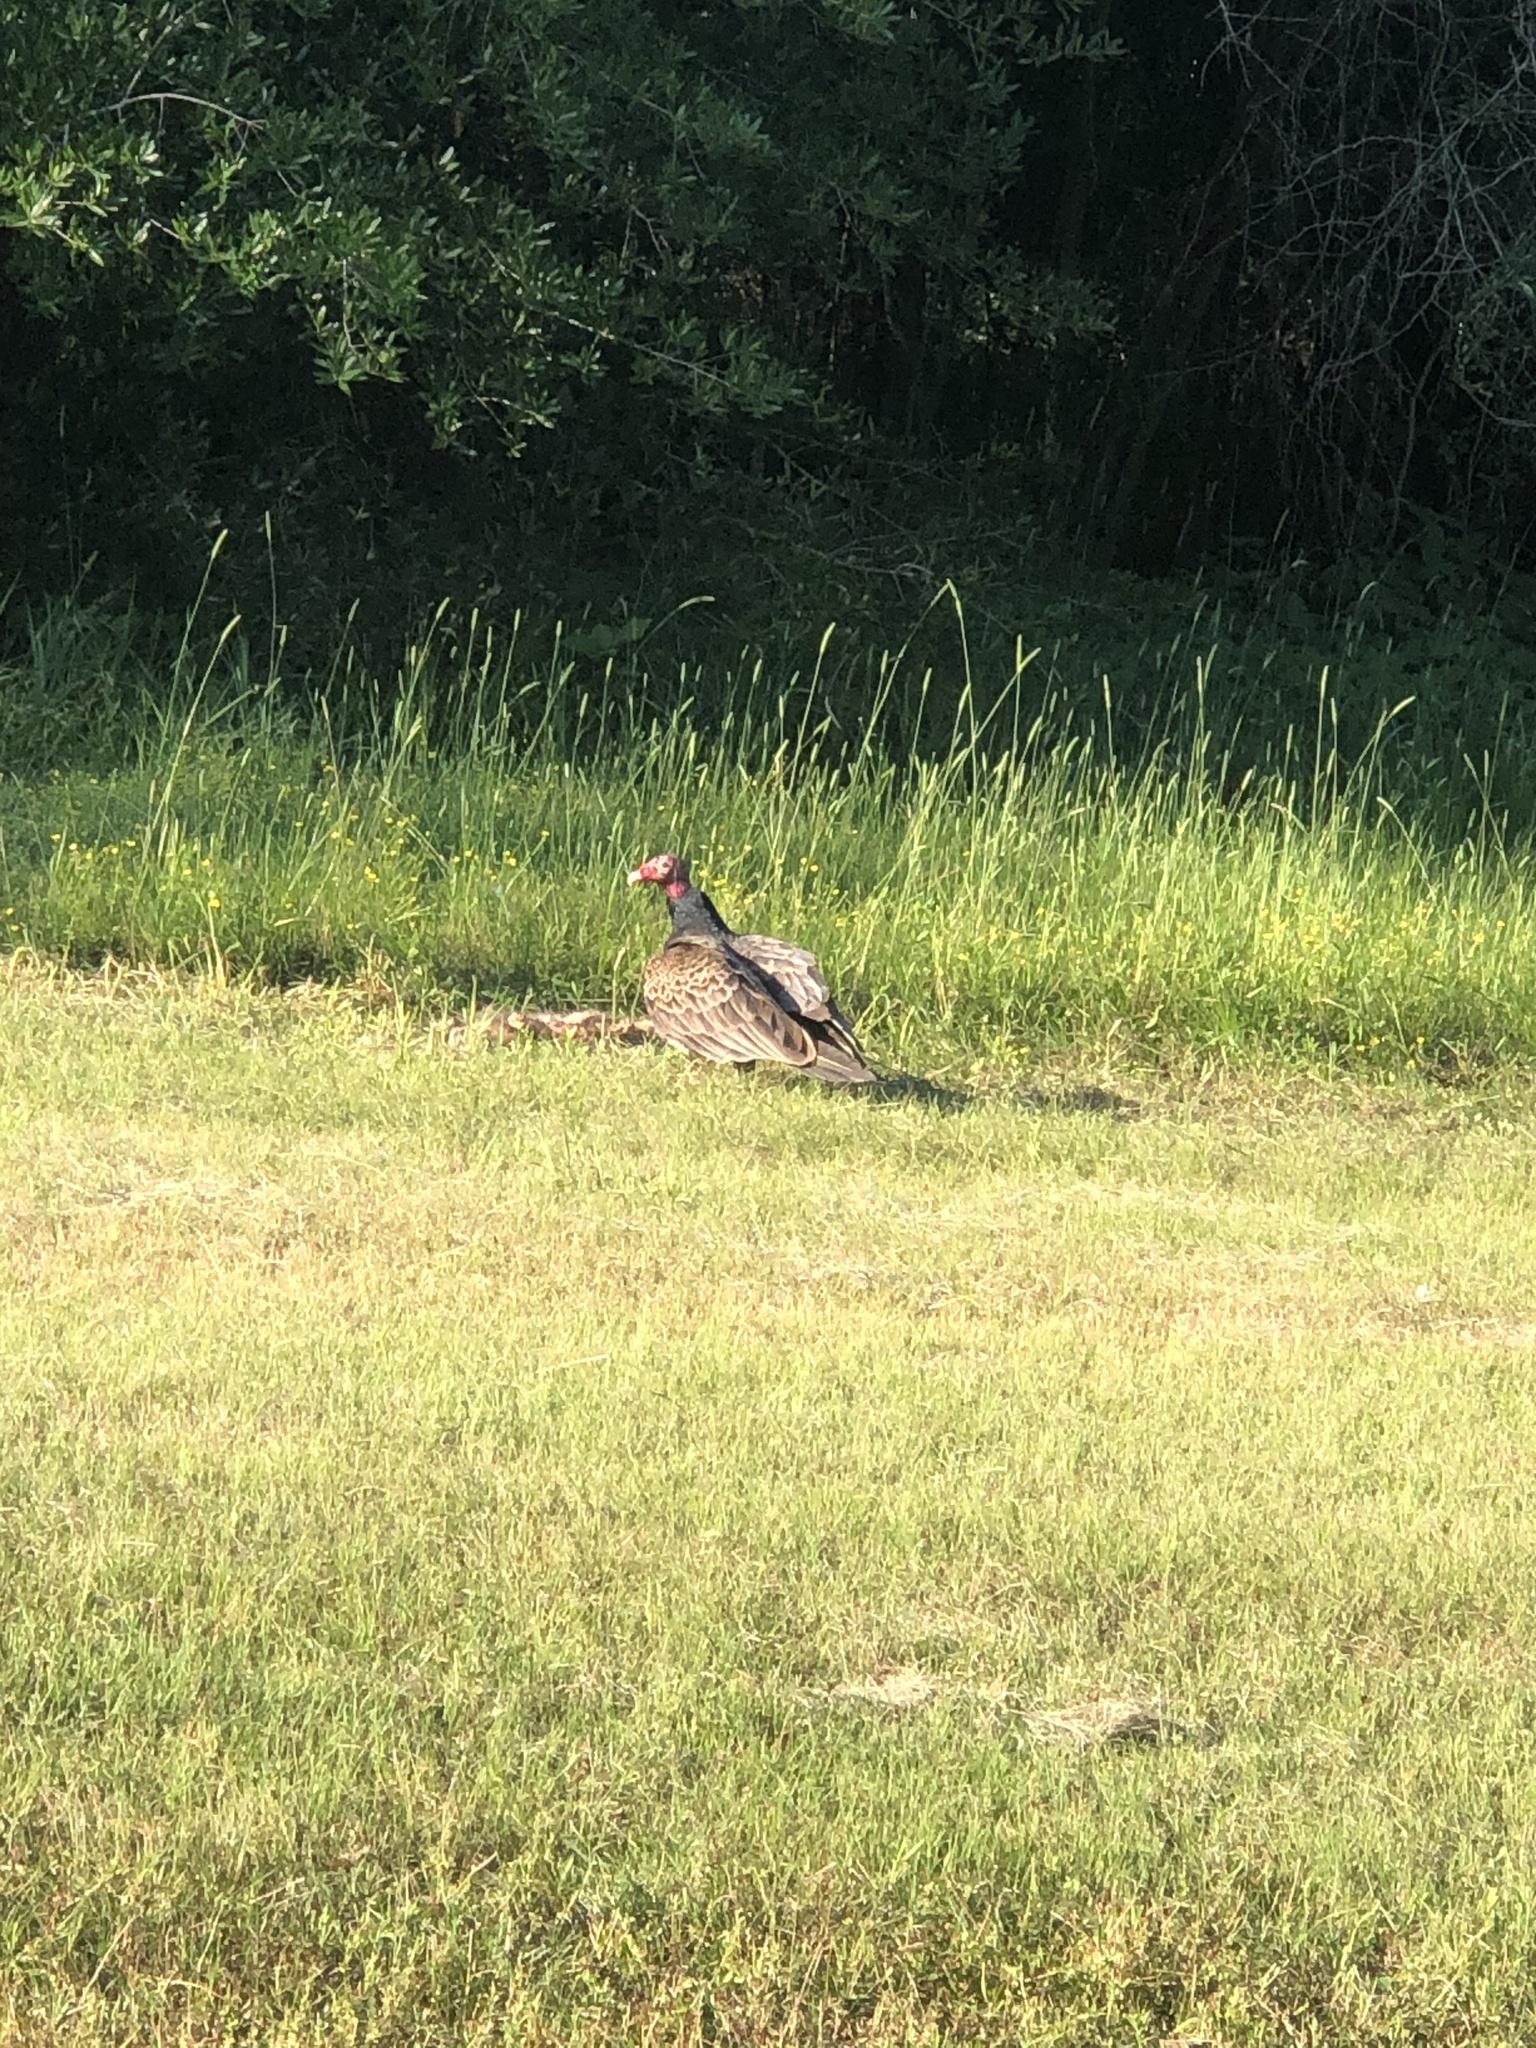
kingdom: Animalia
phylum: Chordata
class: Aves
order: Accipitriformes
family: Cathartidae
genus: Cathartes
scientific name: Cathartes aura
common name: Turkey vulture
